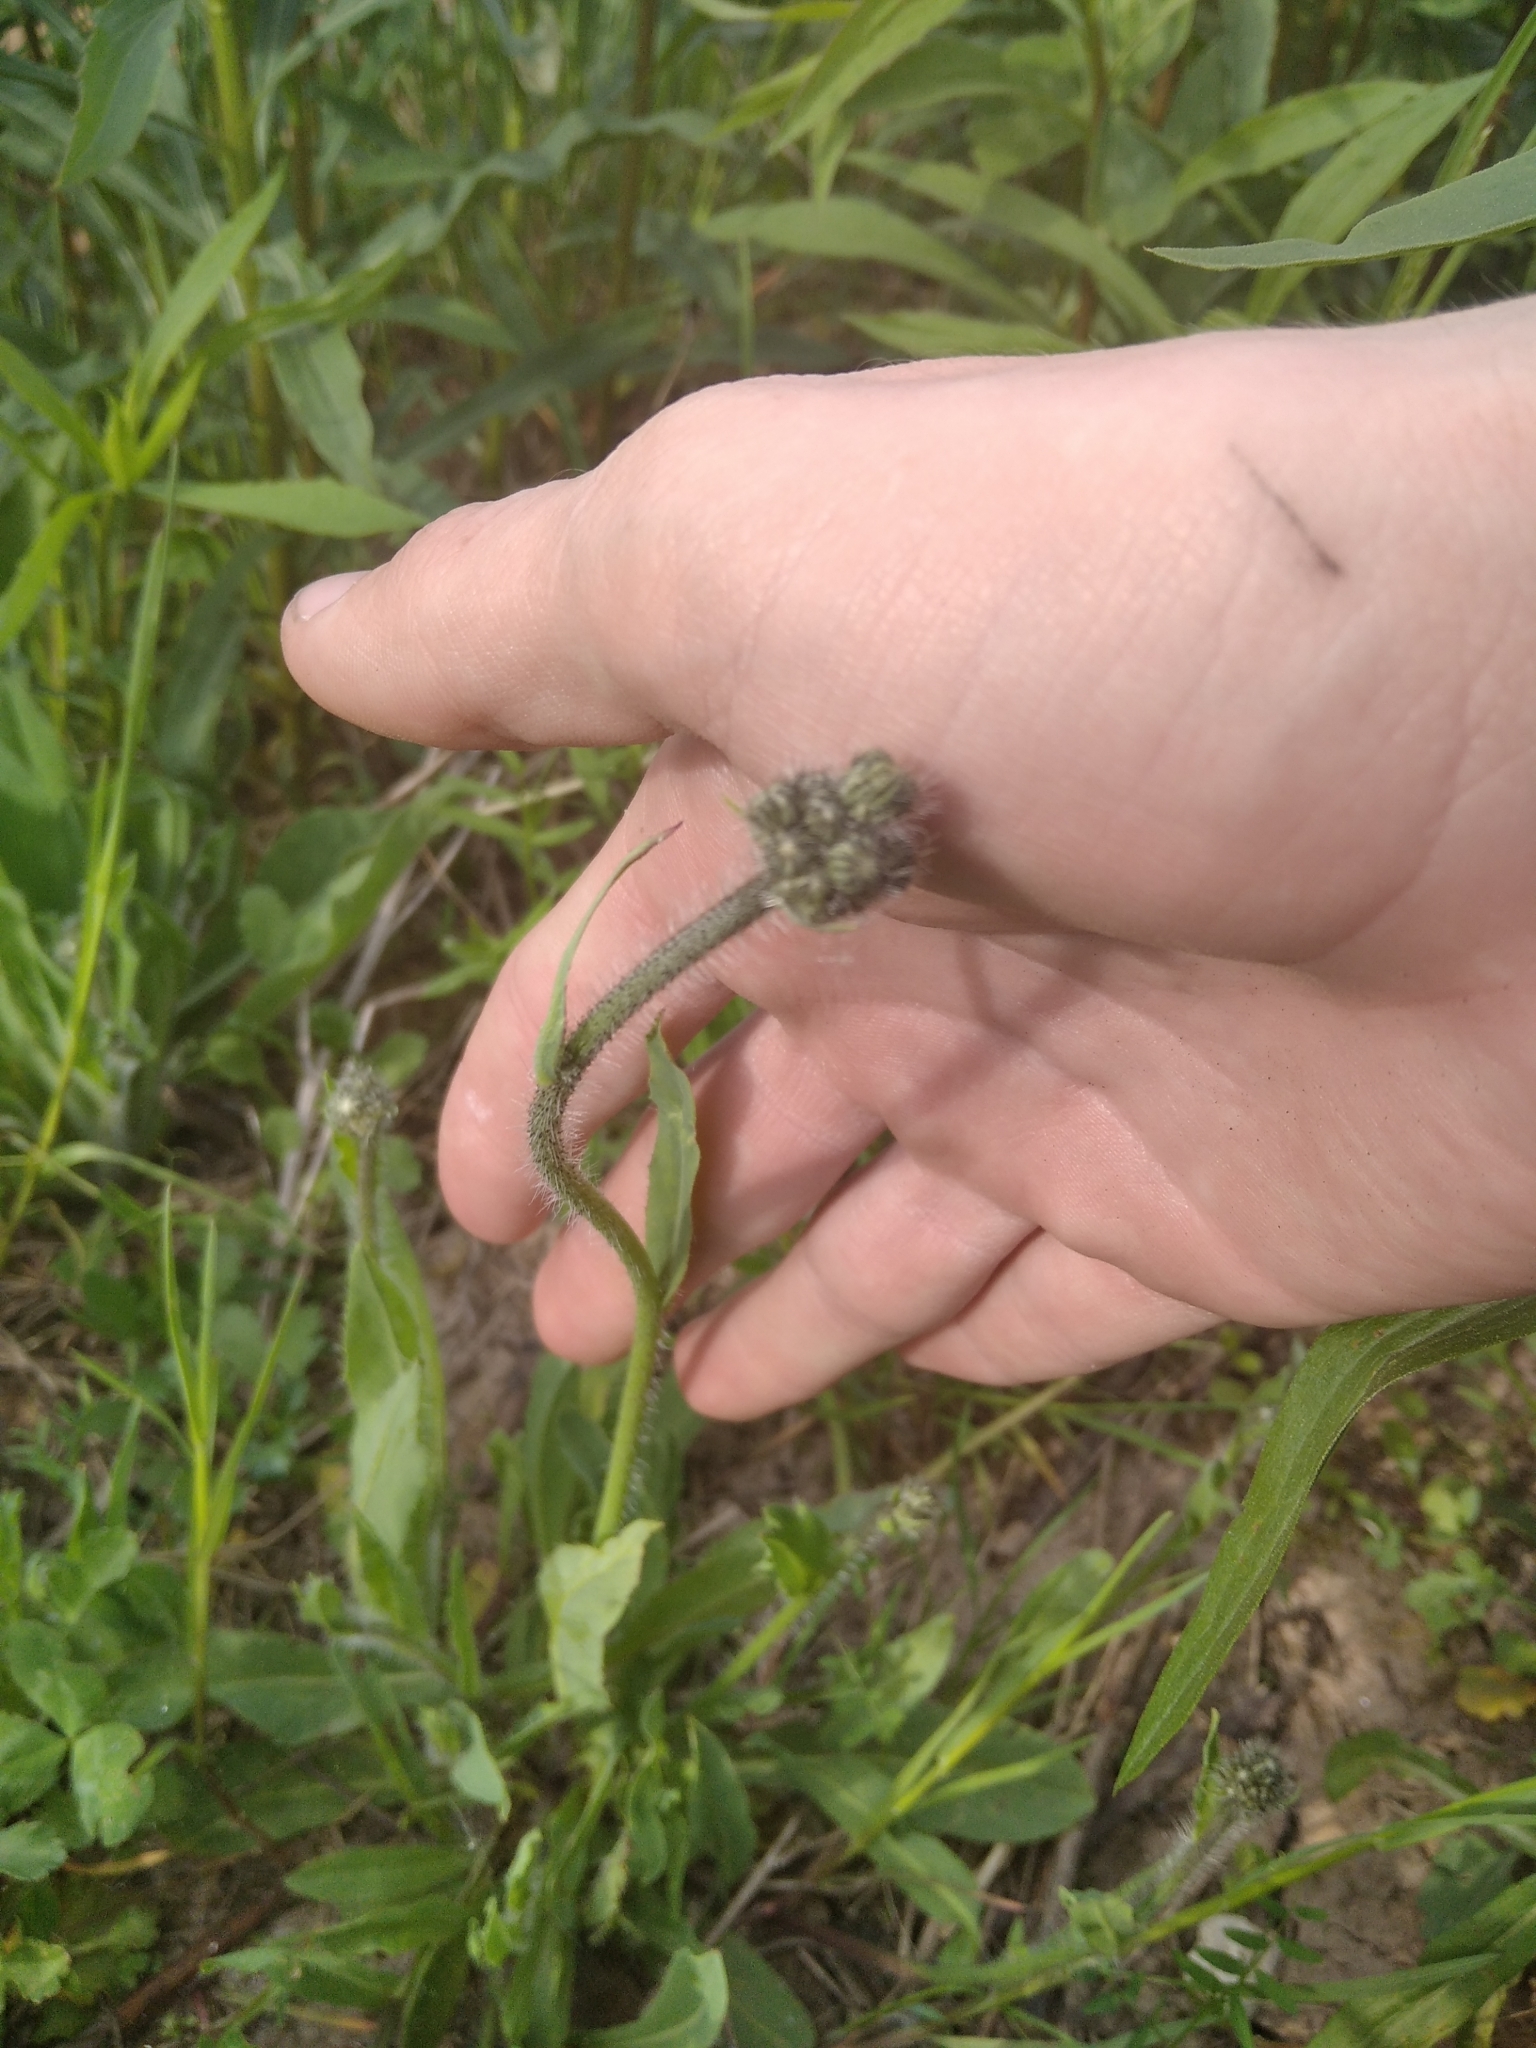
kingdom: Plantae
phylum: Tracheophyta
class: Magnoliopsida
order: Asterales
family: Asteraceae
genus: Pilosella
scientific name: Pilosella
